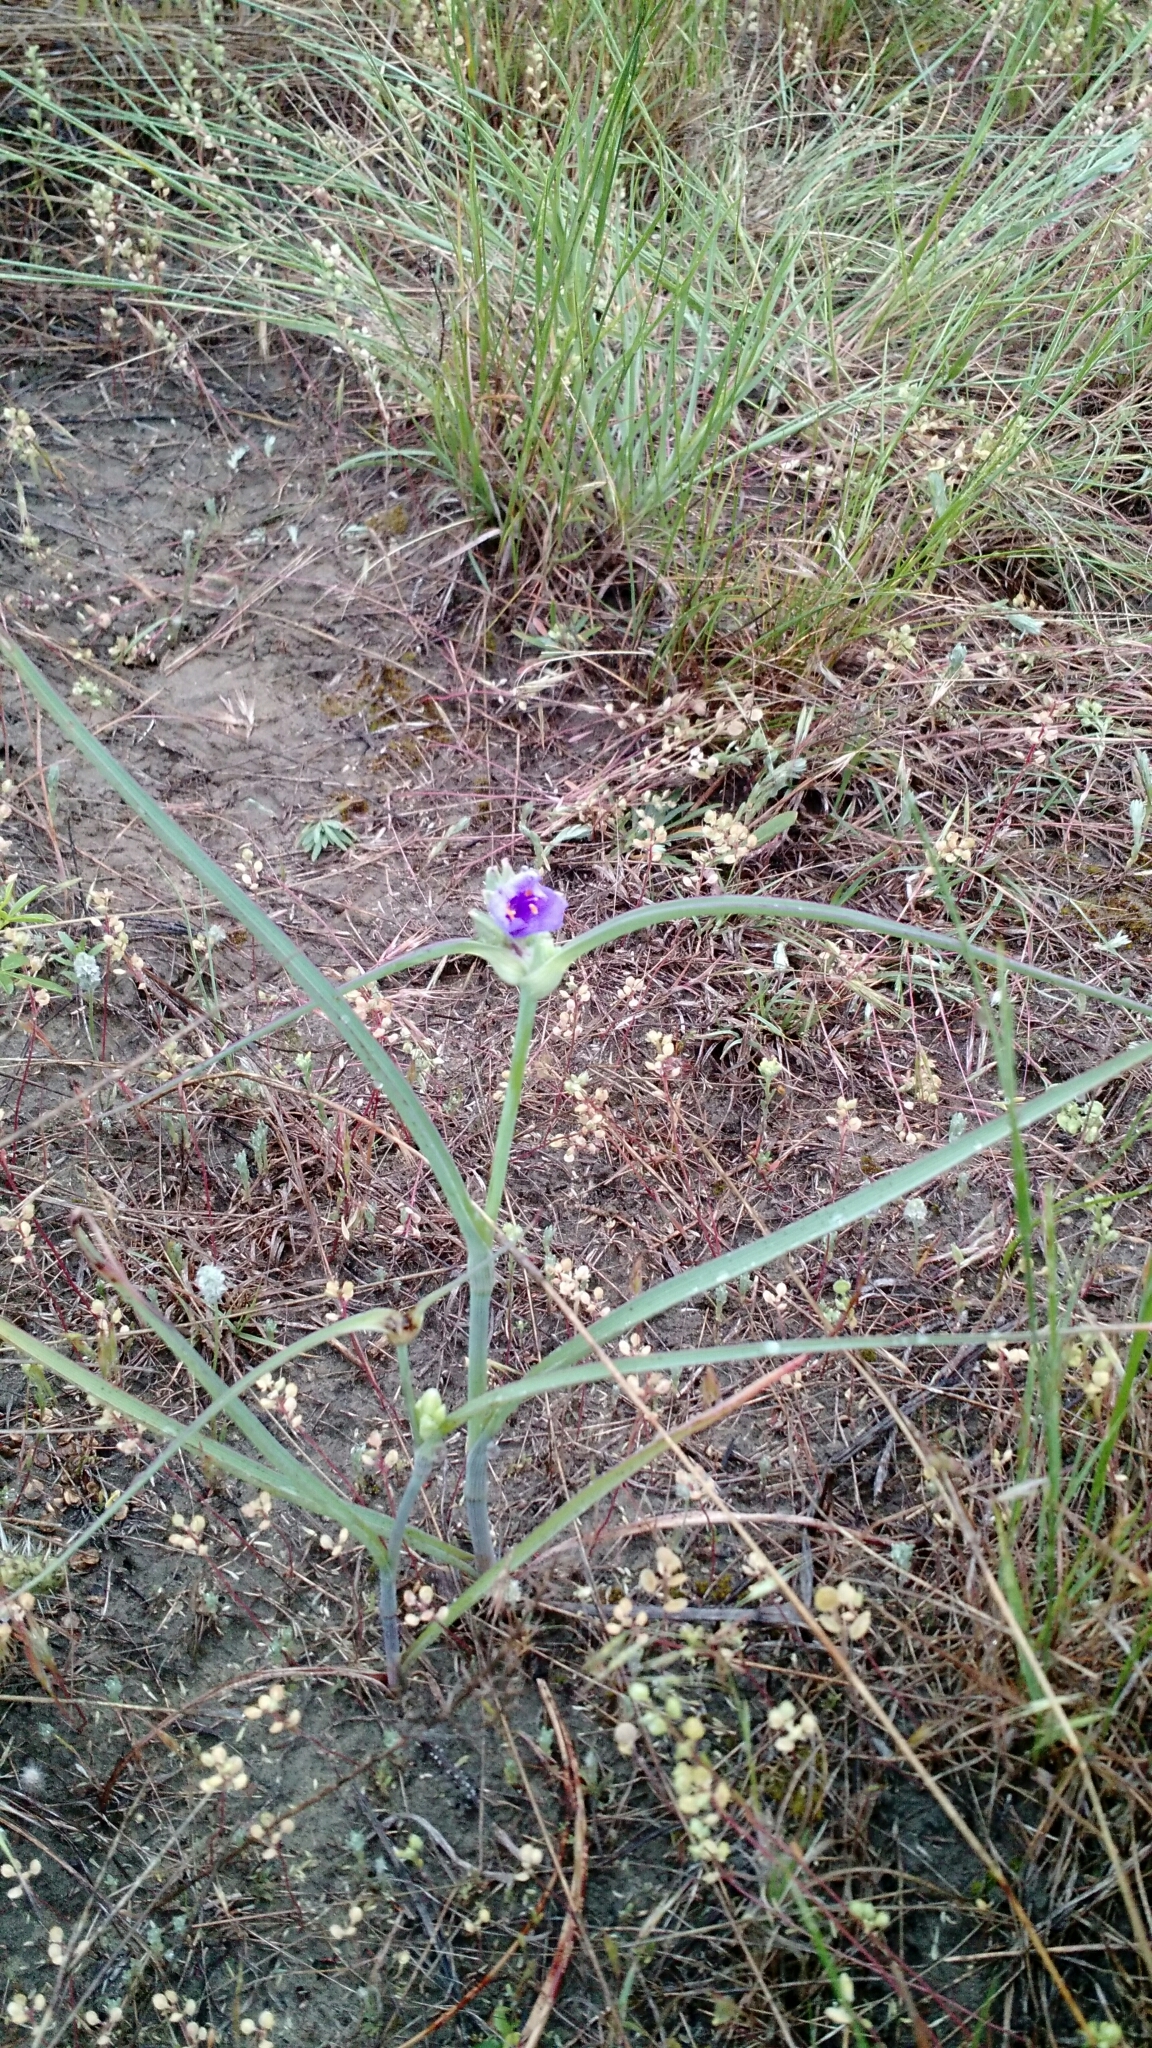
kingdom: Plantae
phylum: Tracheophyta
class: Liliopsida
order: Commelinales
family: Commelinaceae
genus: Tradescantia
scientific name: Tradescantia occidentalis
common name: Prairie spiderwort
